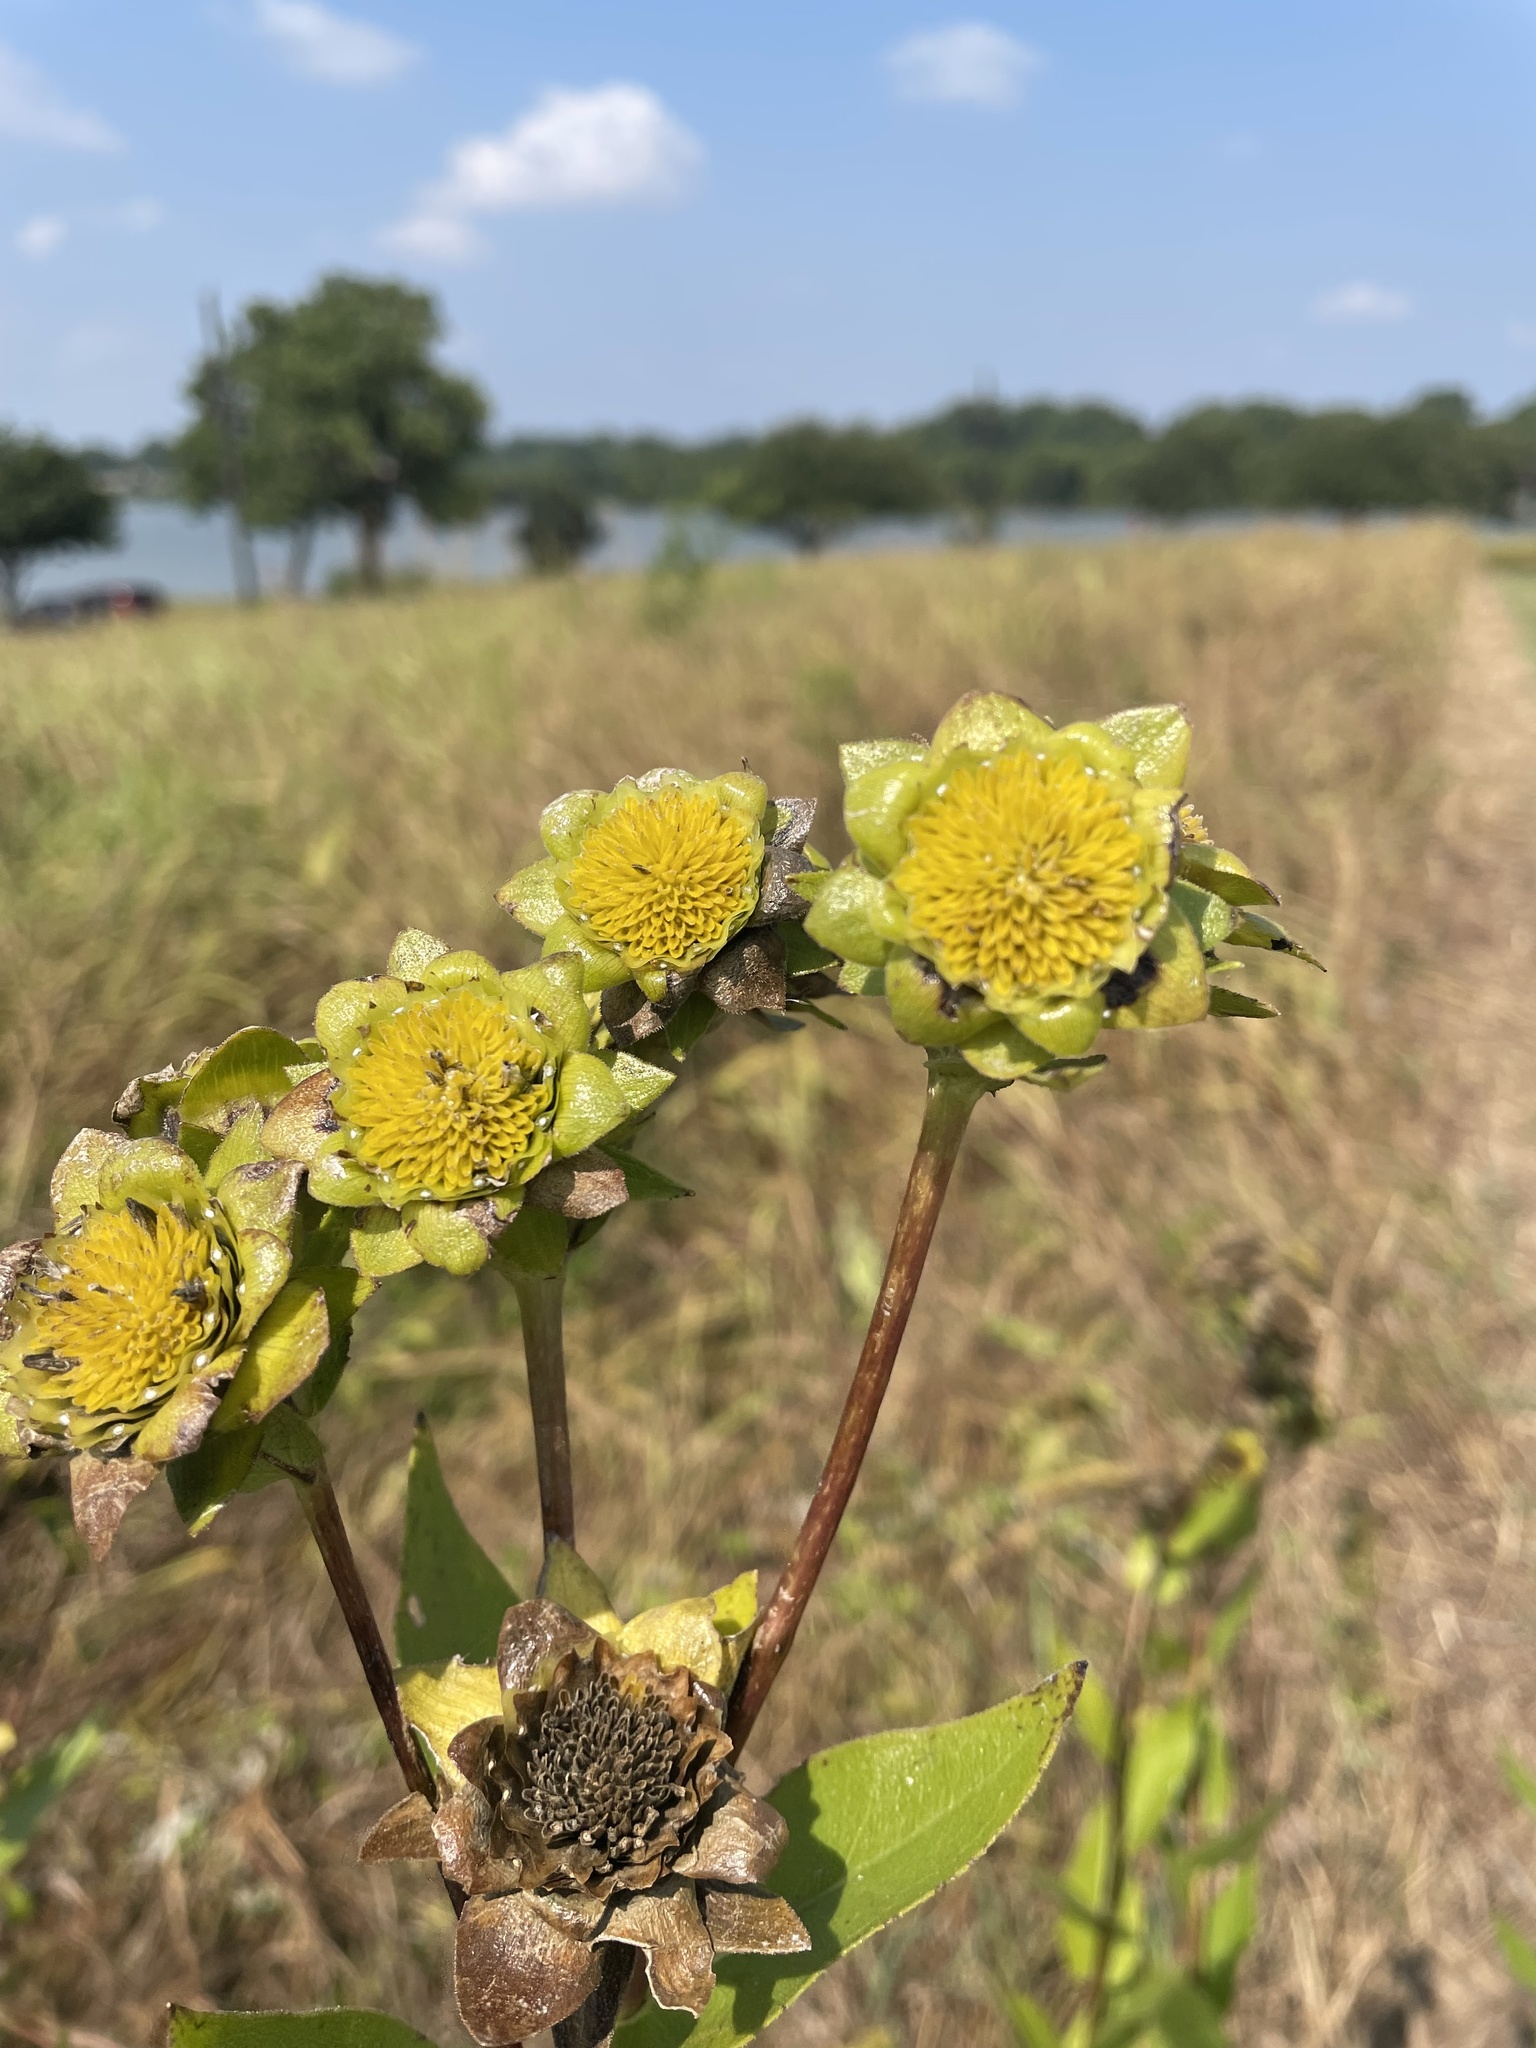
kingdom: Plantae
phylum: Tracheophyta
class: Magnoliopsida
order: Asterales
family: Asteraceae
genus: Silphium
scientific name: Silphium radula
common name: Roughleaf rosinweed
